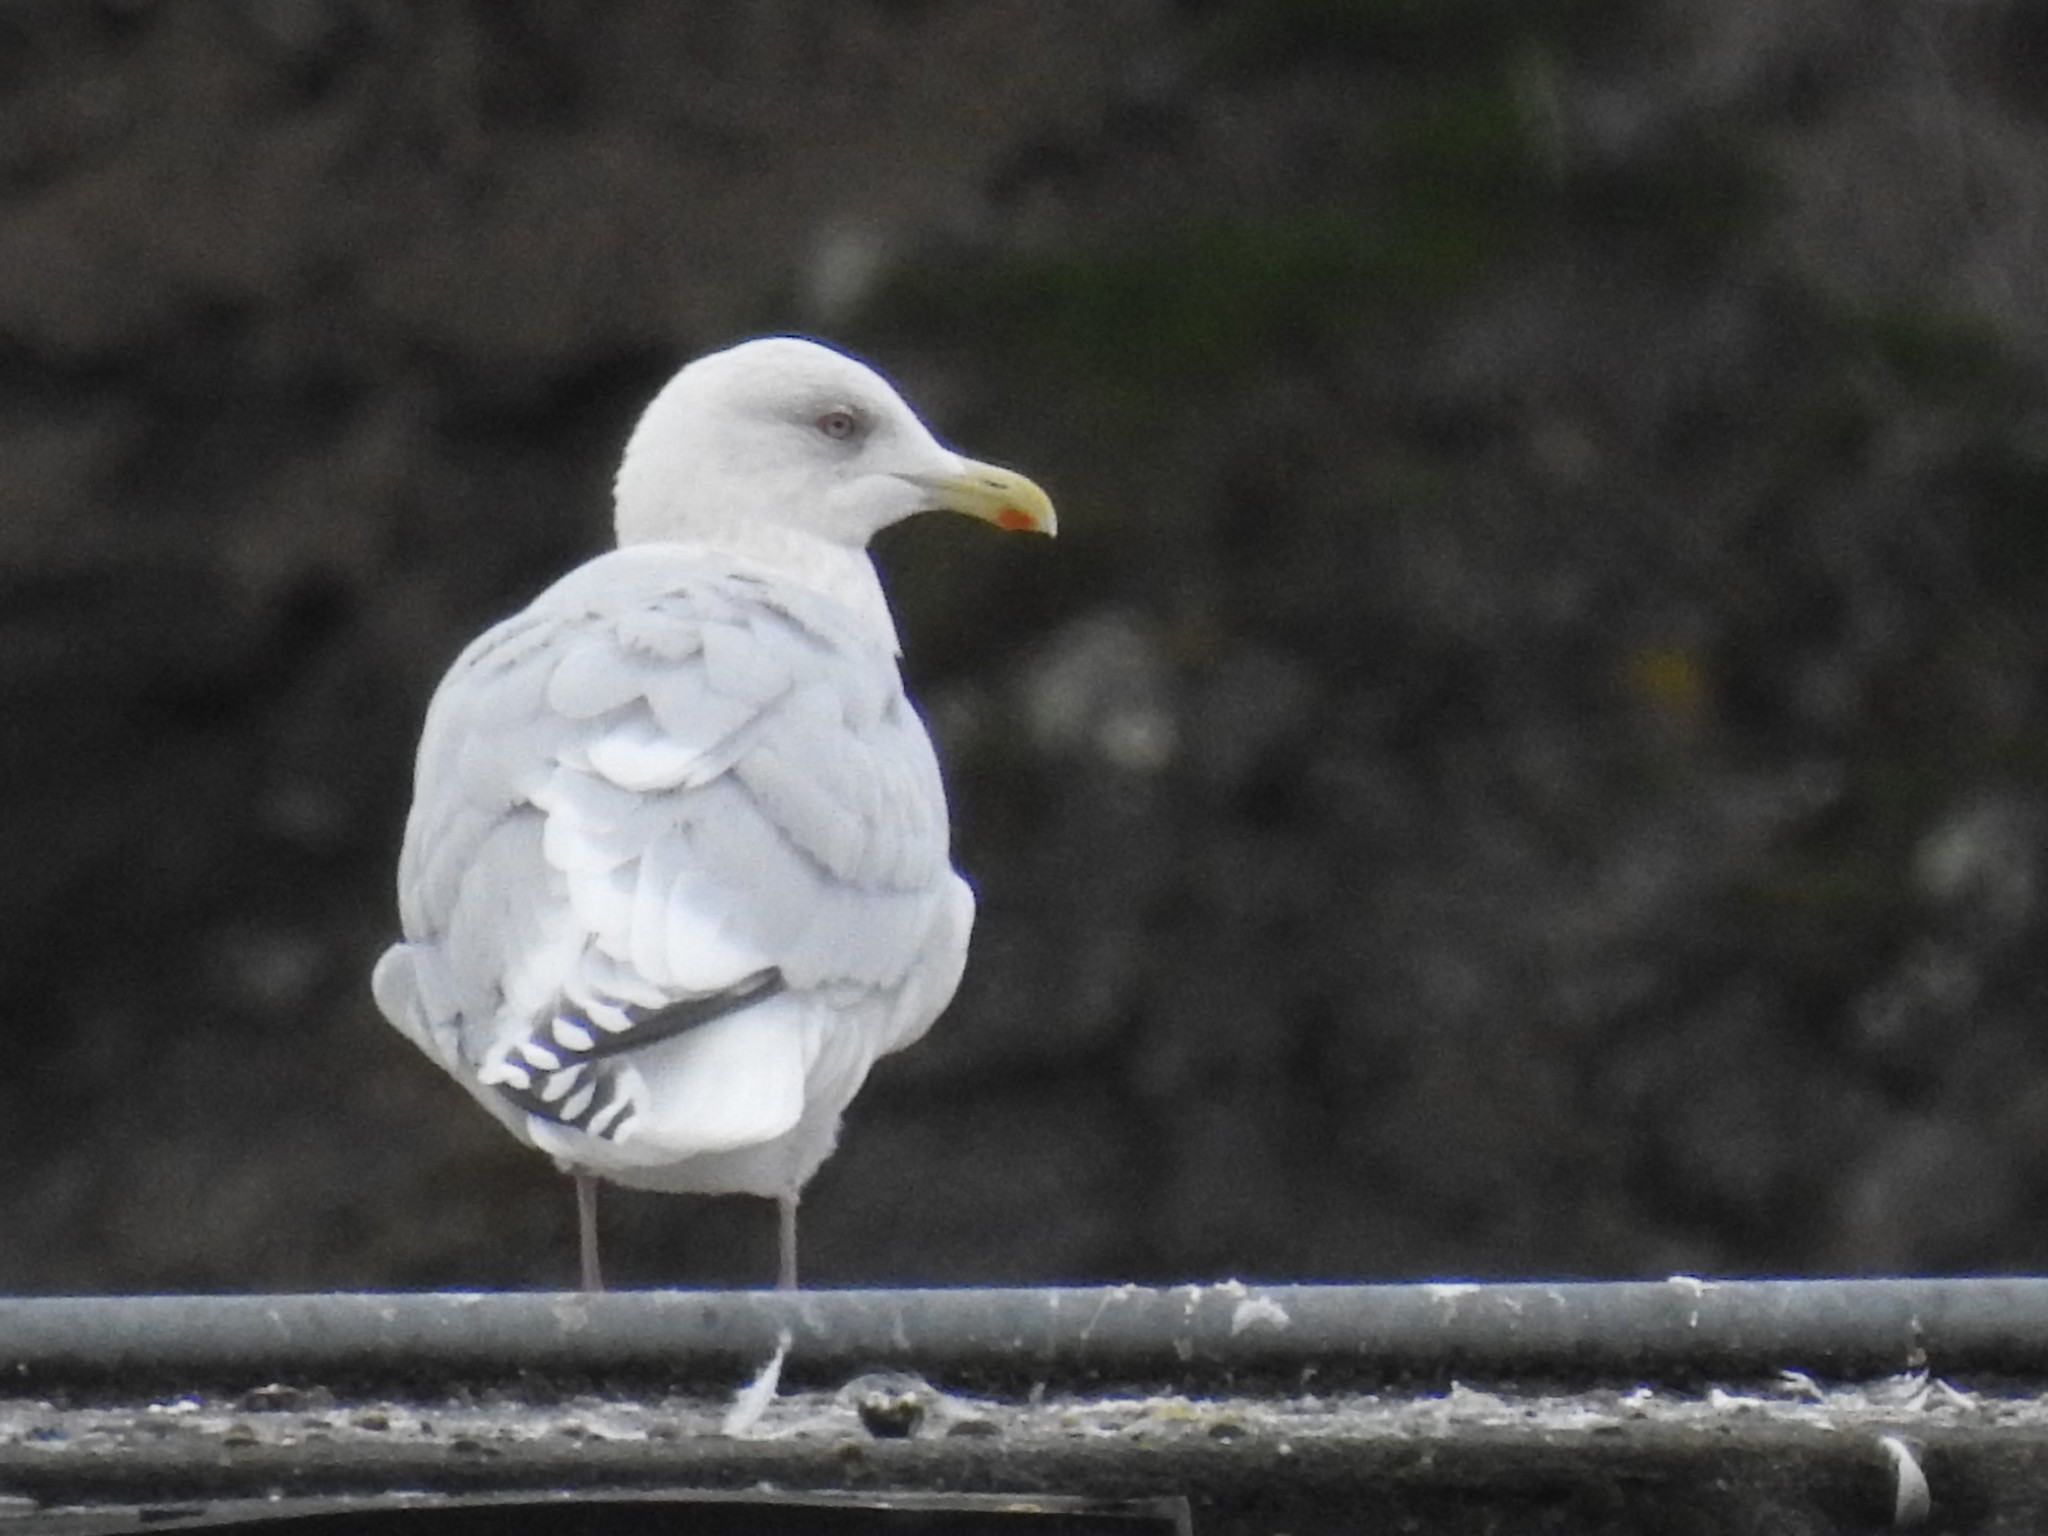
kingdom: Animalia
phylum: Chordata
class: Aves
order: Charadriiformes
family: Laridae
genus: Larus
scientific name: Larus glaucoides
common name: Iceland gull
